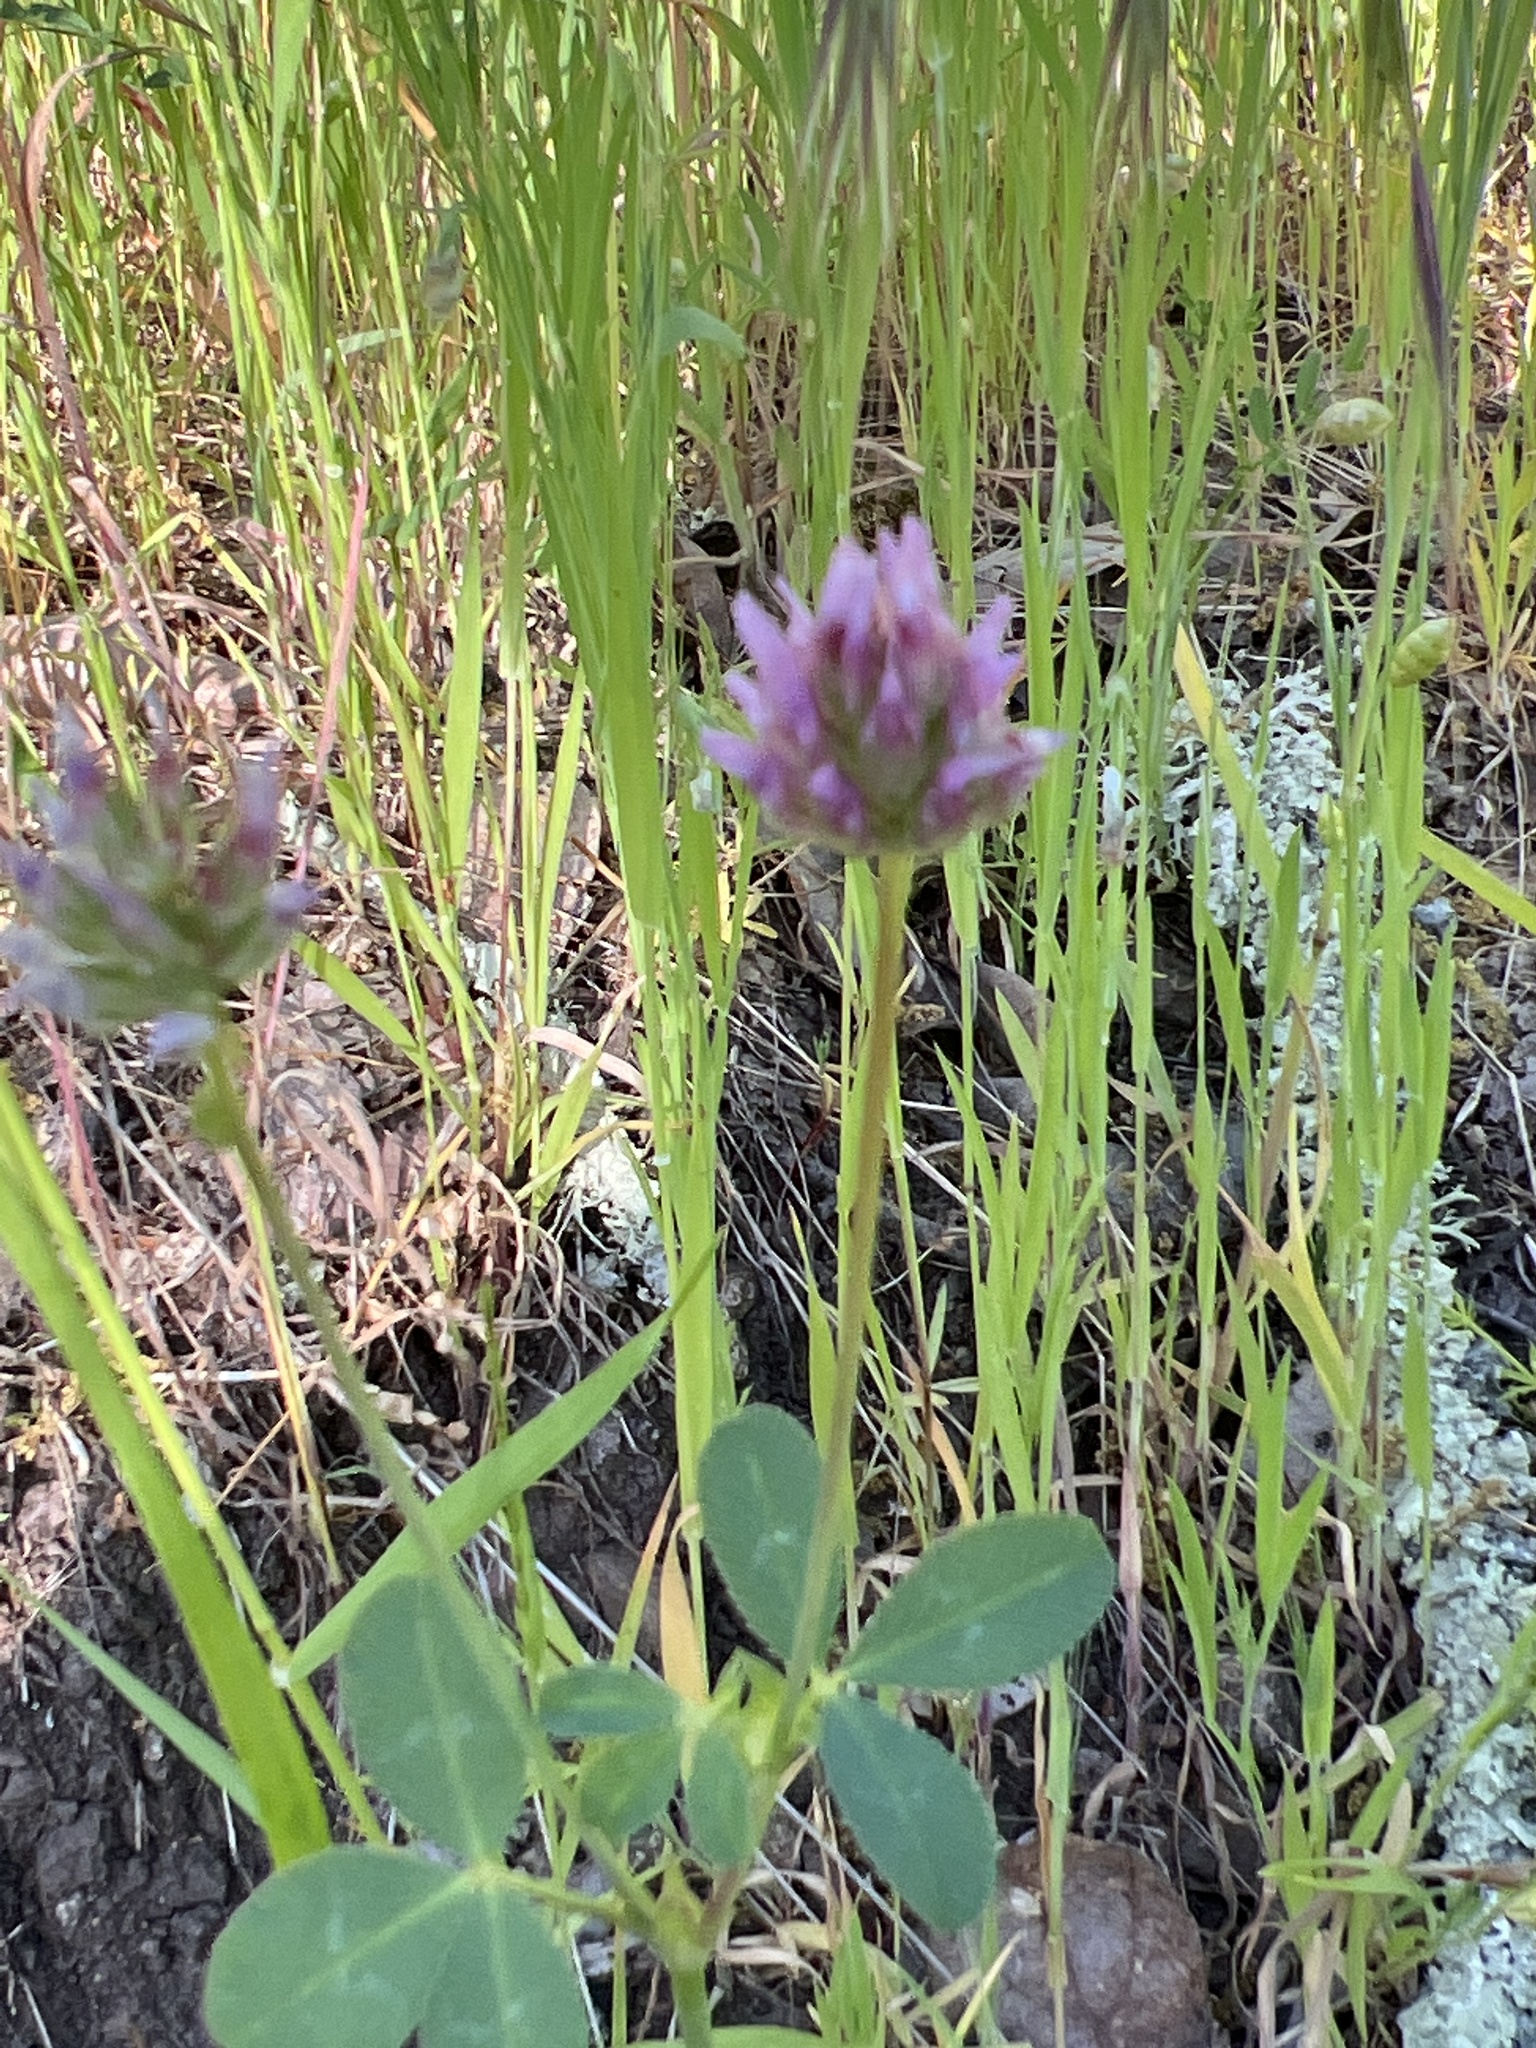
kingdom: Plantae
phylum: Tracheophyta
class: Magnoliopsida
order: Fabales
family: Fabaceae
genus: Trifolium
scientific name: Trifolium ciliolatum
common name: Foothill clover
